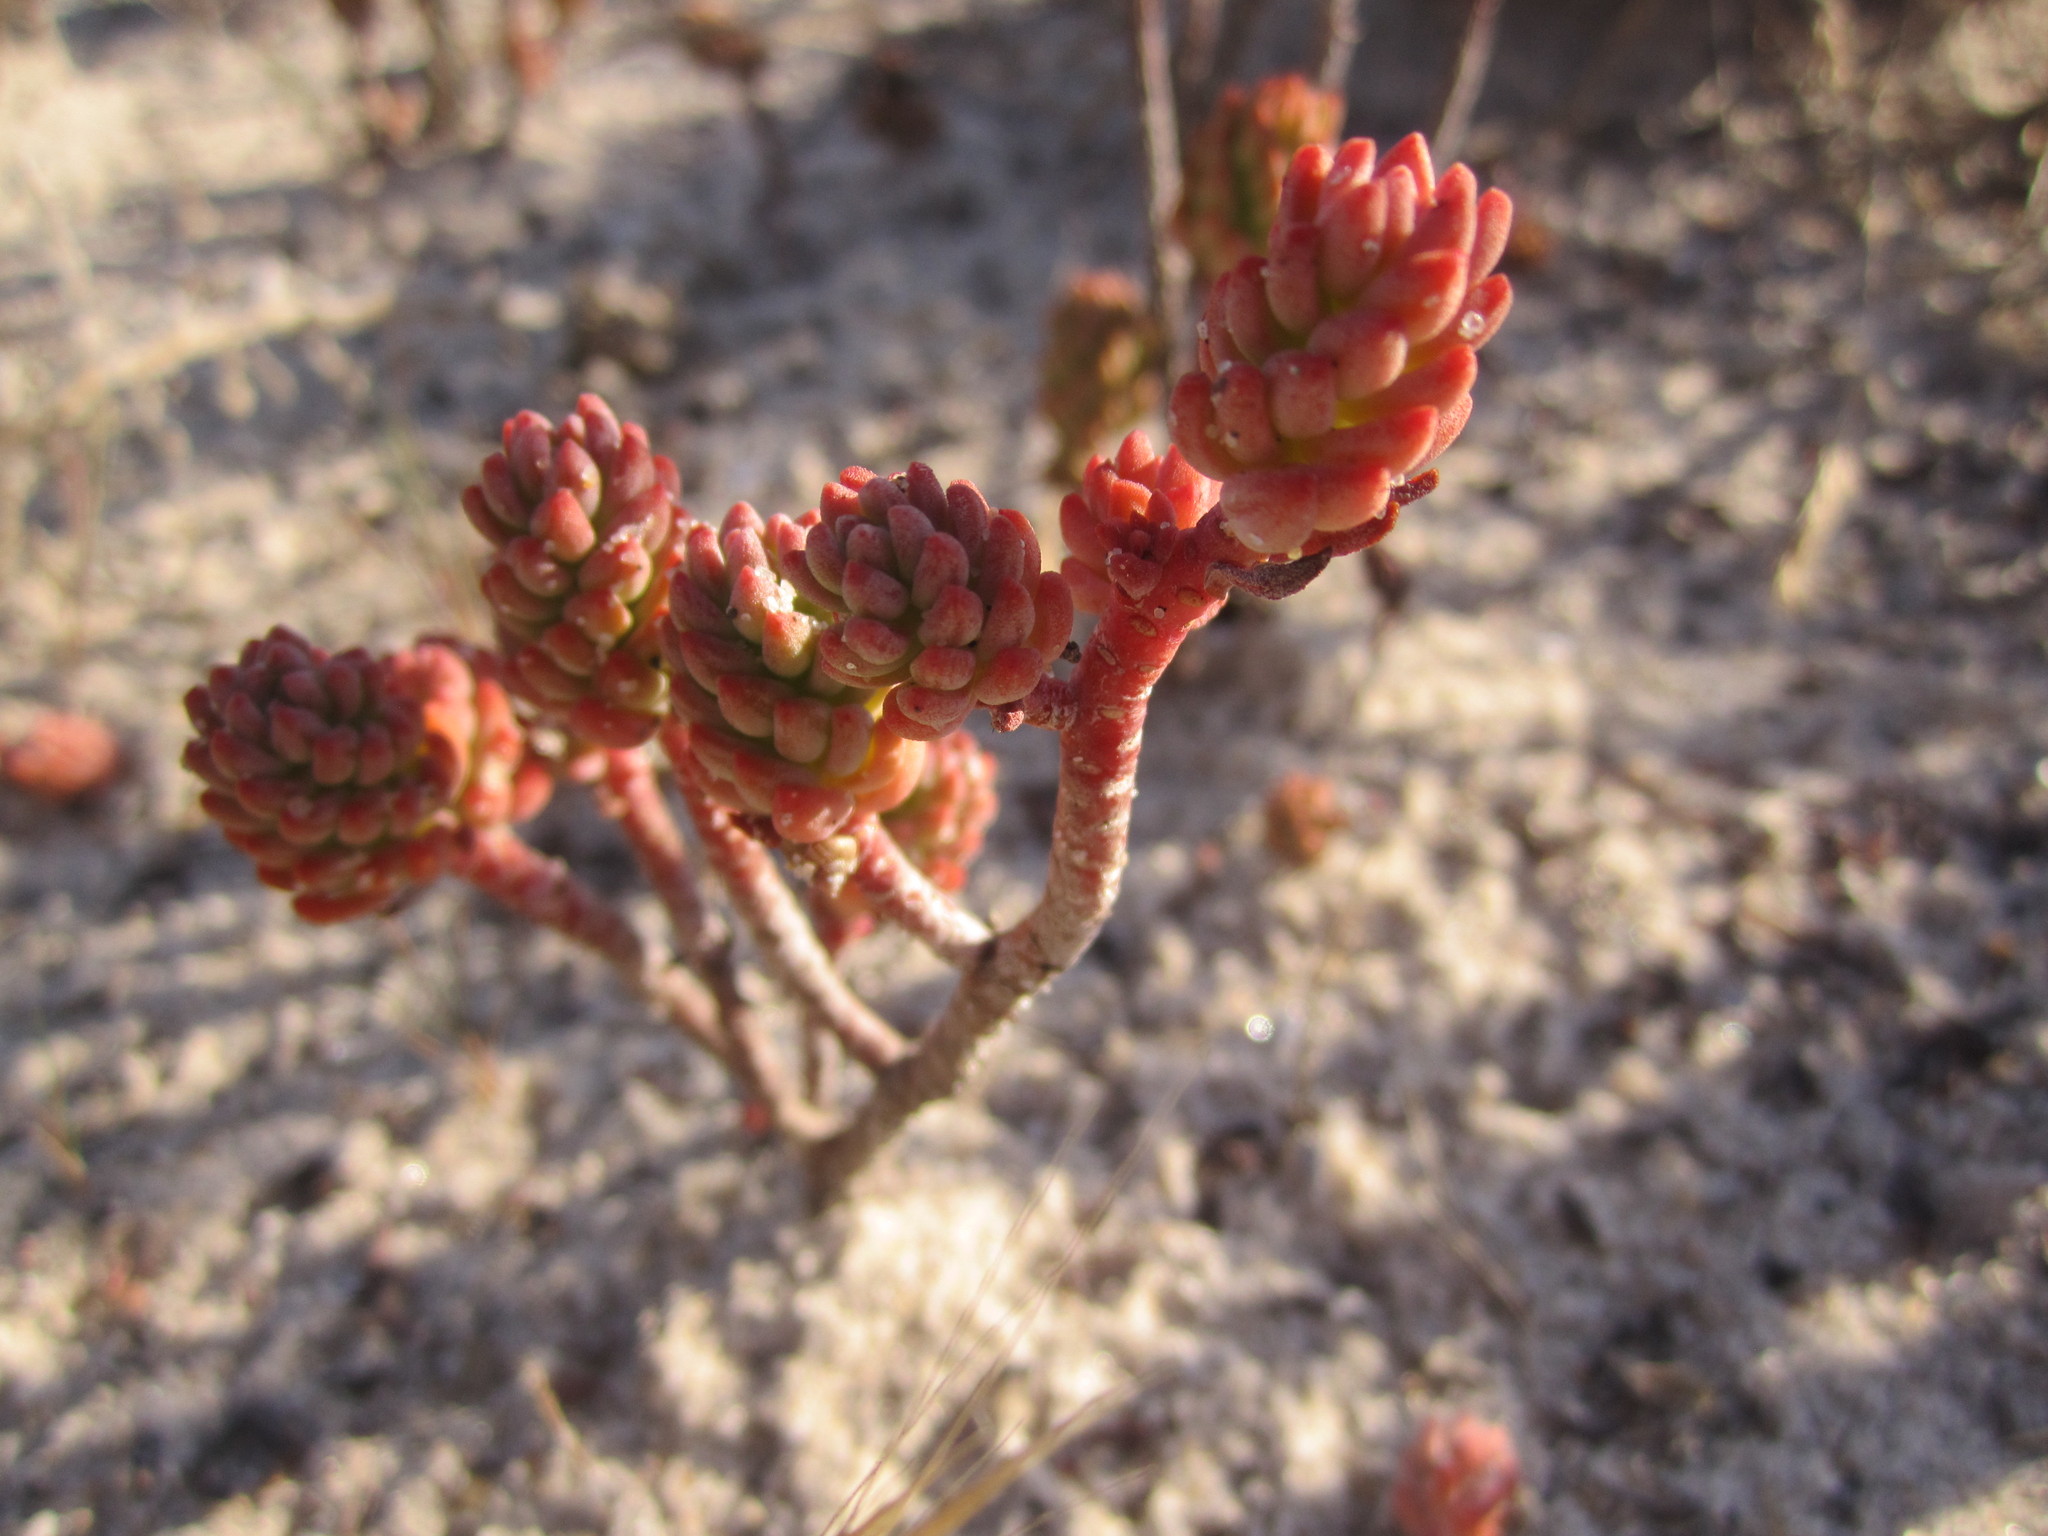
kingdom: Plantae
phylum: Tracheophyta
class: Magnoliopsida
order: Saxifragales
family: Crassulaceae
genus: Petrosedum
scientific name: Petrosedum sediforme
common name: Pale stonecrop
